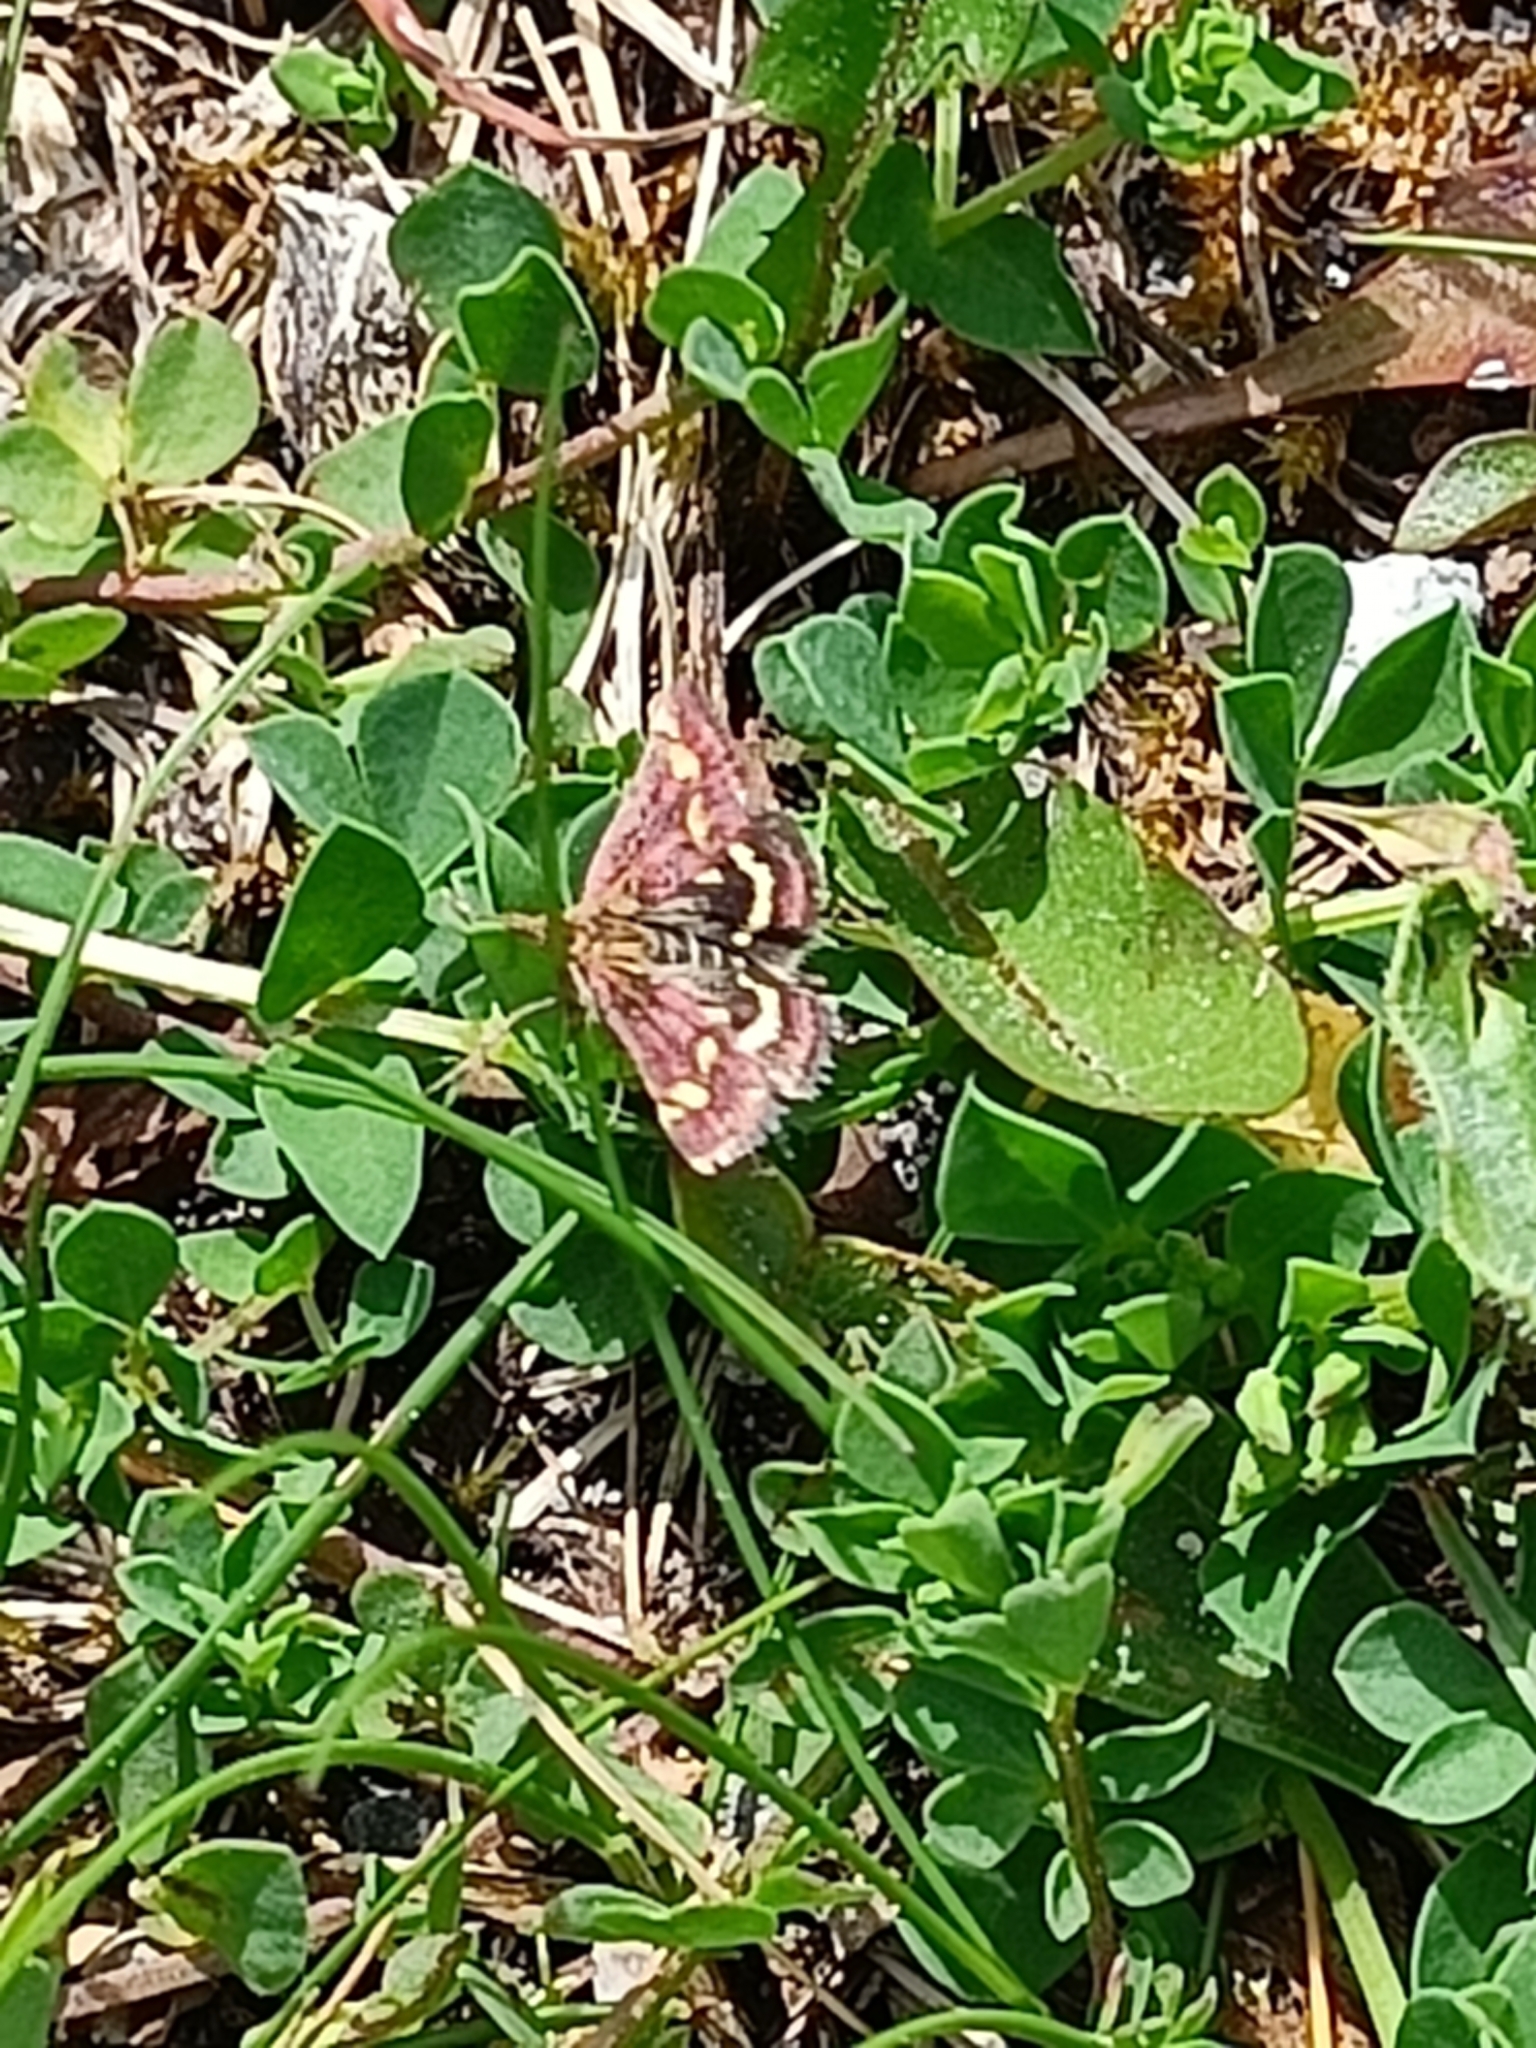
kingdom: Animalia
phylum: Arthropoda
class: Insecta
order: Lepidoptera
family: Crambidae
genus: Pyrausta
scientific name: Pyrausta purpuralis
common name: Common purple & gold
